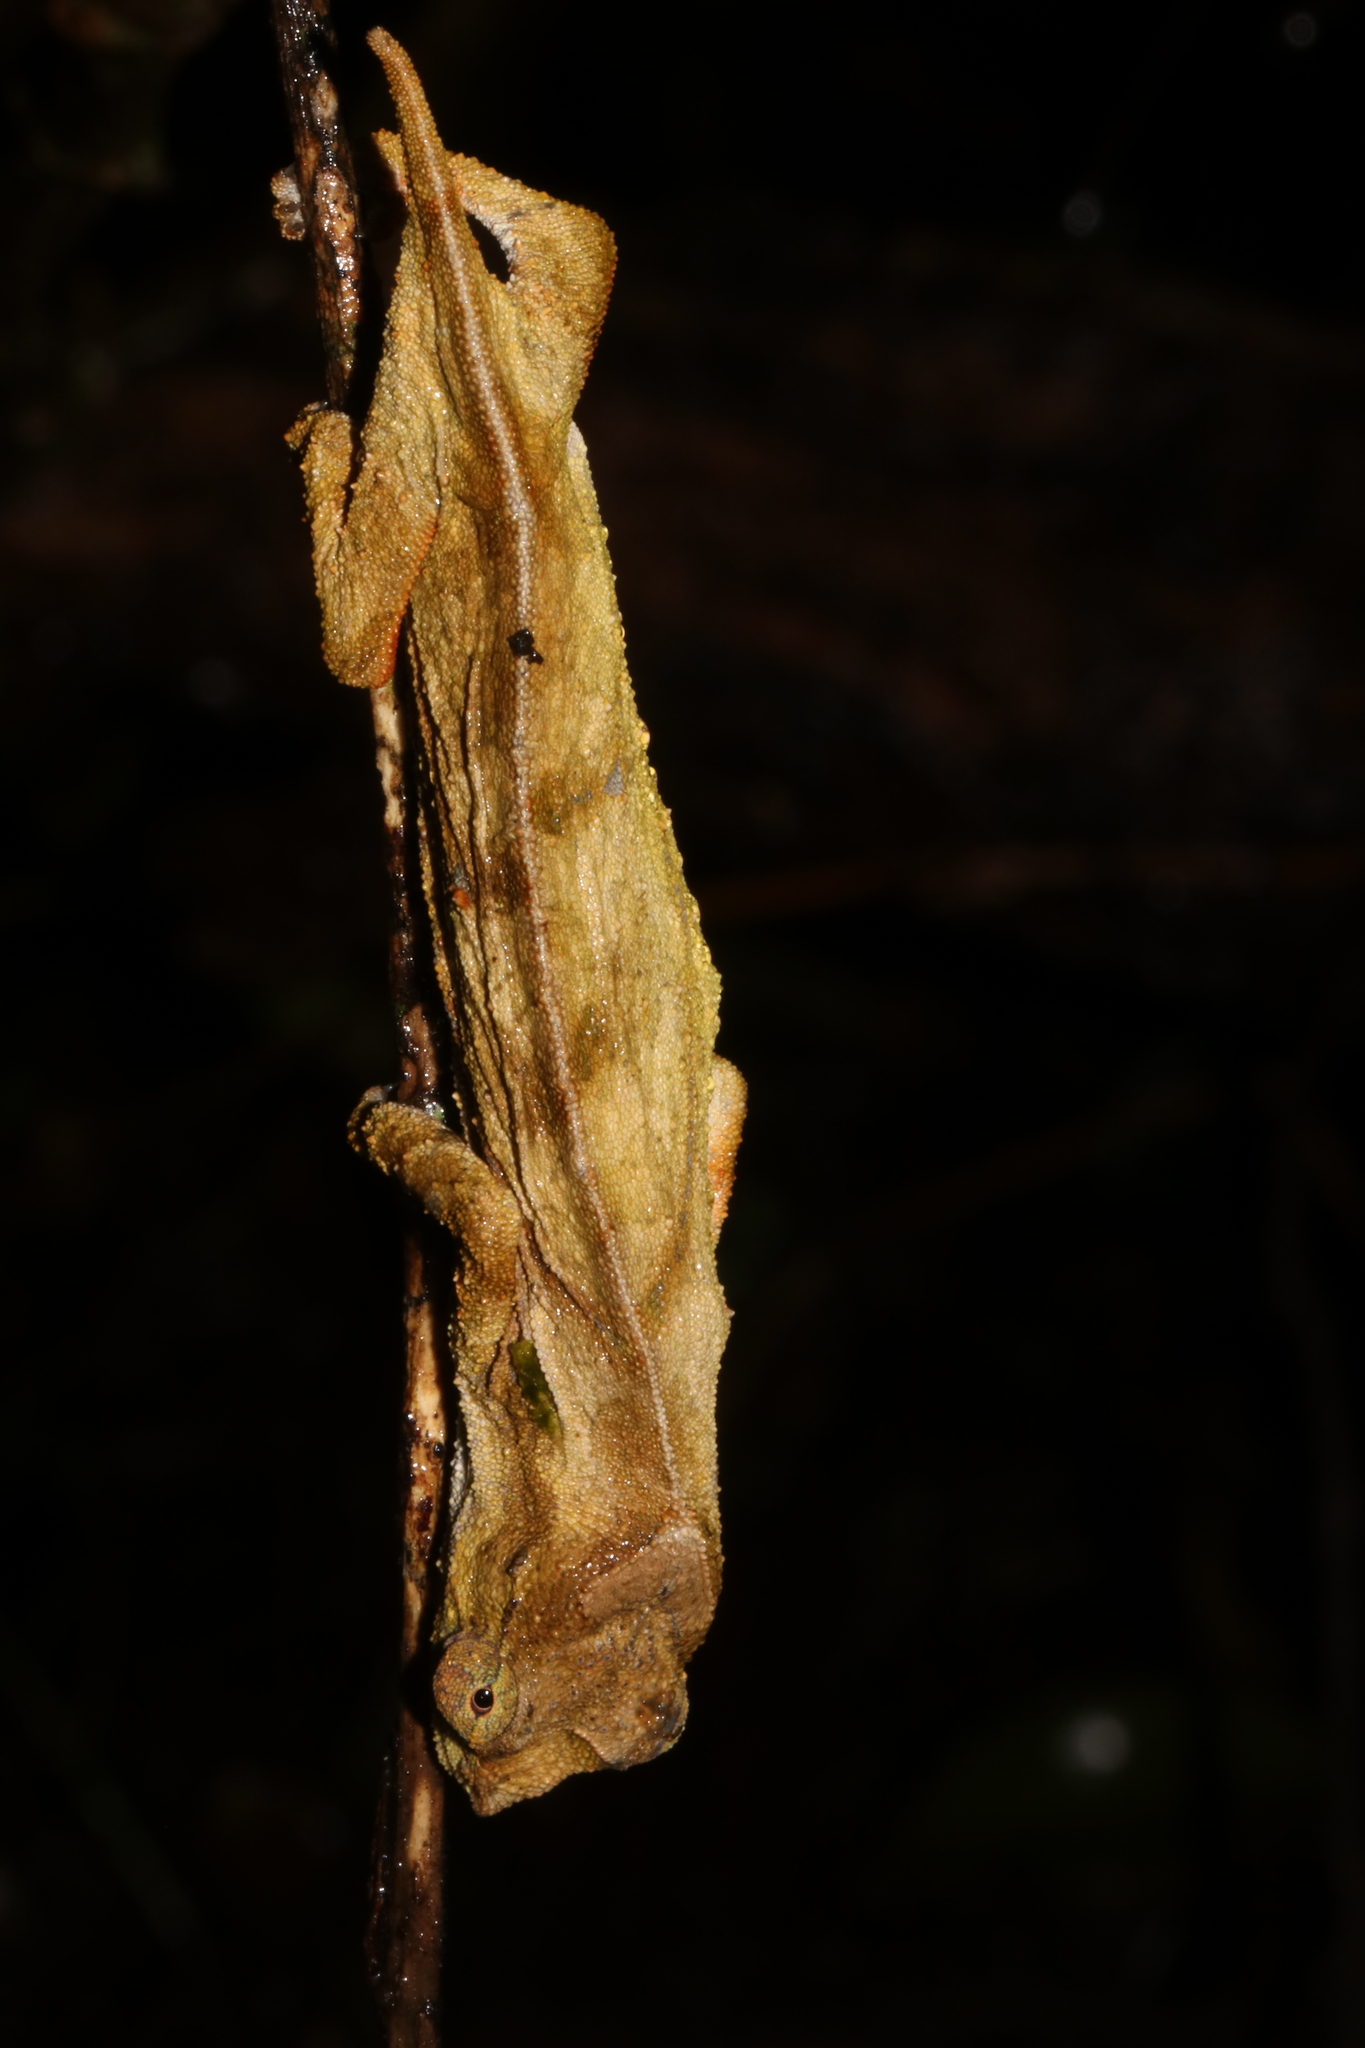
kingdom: Animalia
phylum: Chordata
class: Squamata
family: Chamaeleonidae
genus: Rhampholeon
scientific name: Rhampholeon nchisiensis
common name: South african stumptail chameleon
